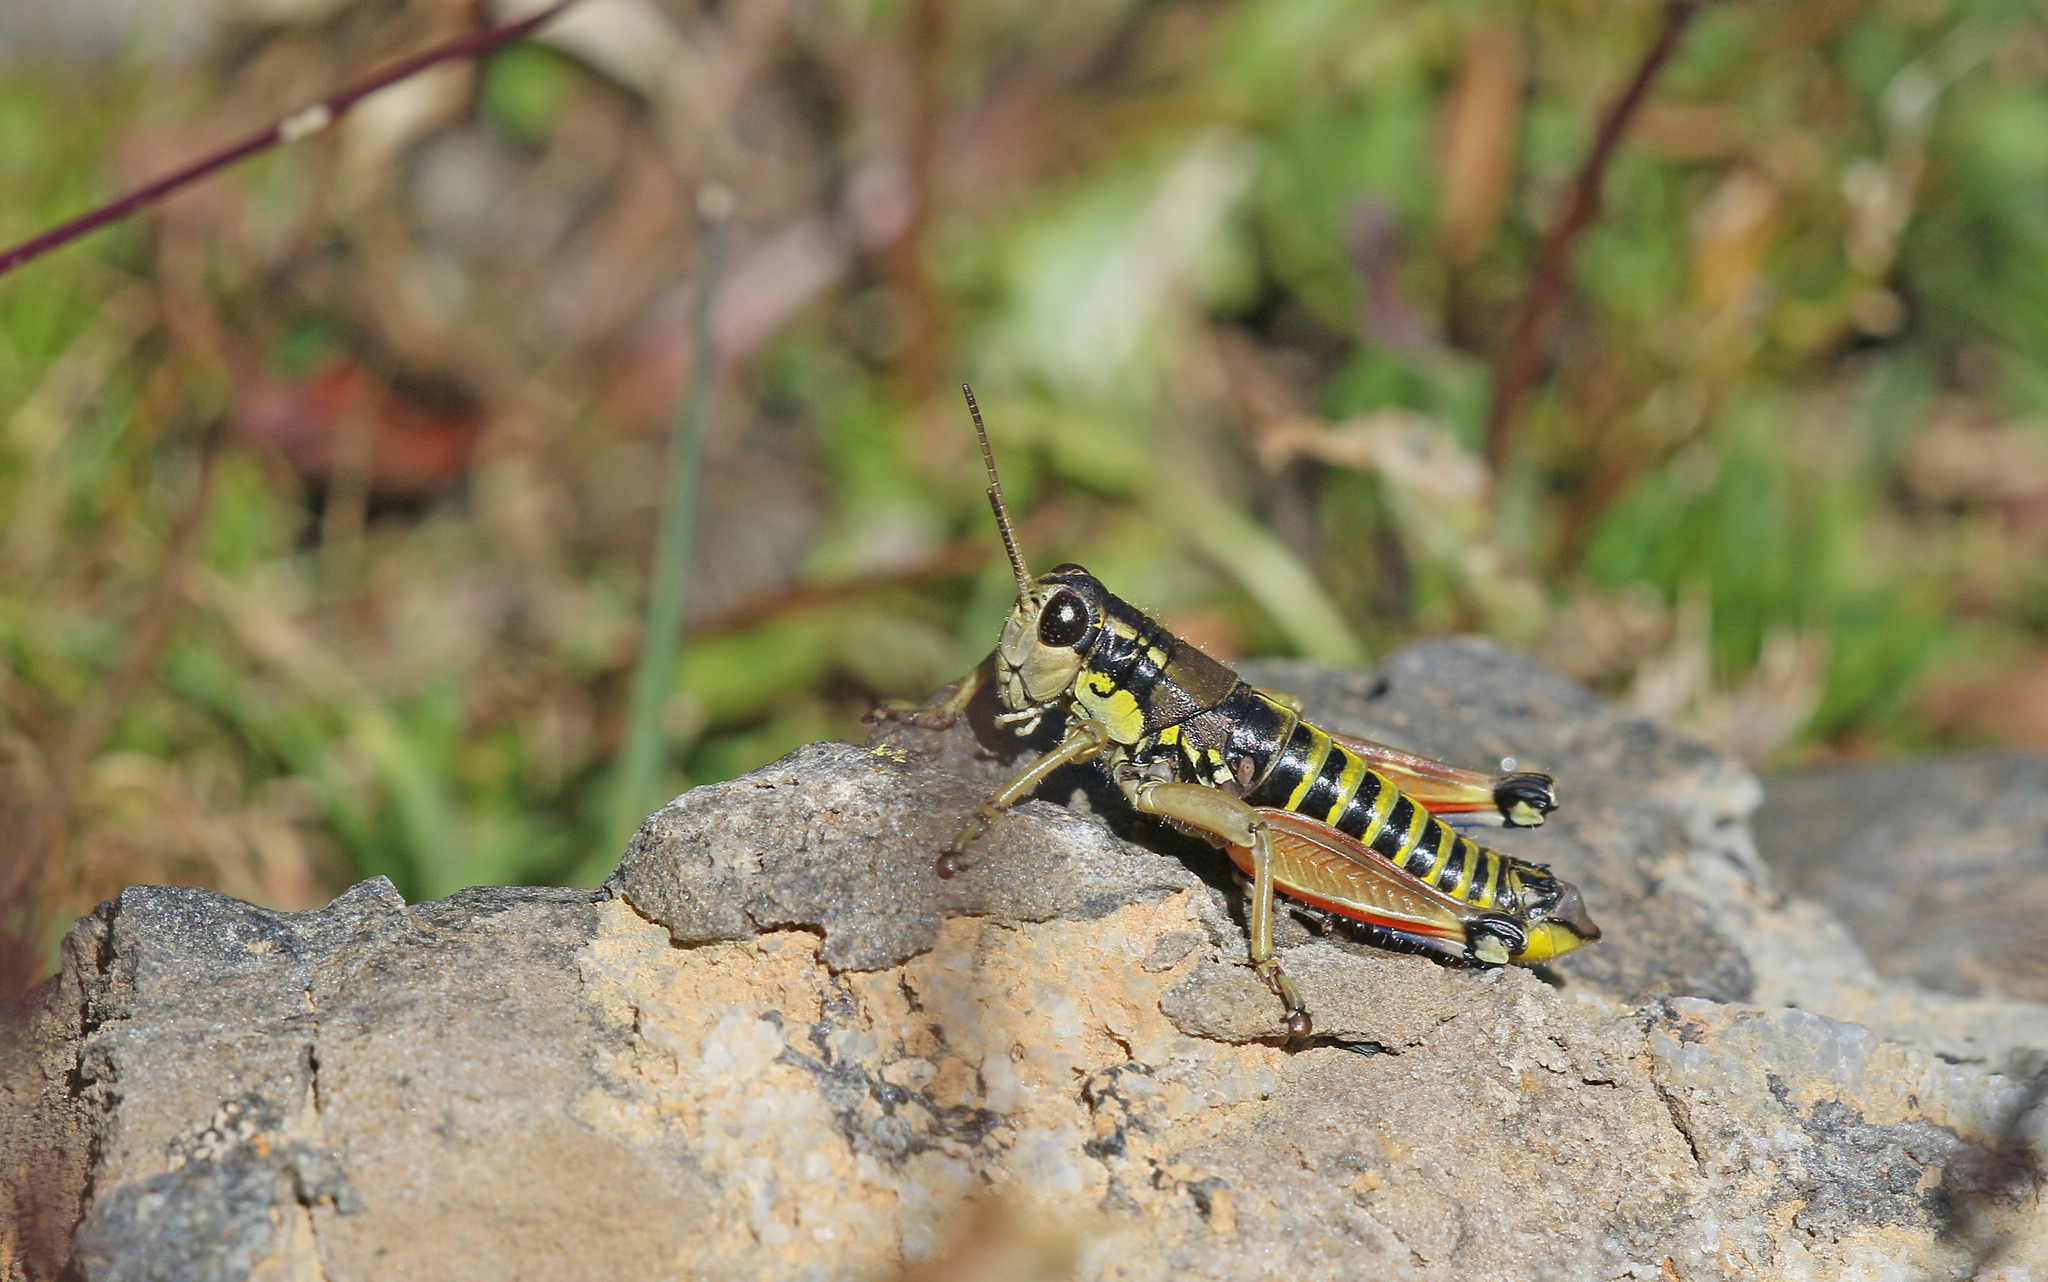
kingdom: Animalia
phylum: Arthropoda
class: Insecta
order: Orthoptera
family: Acrididae
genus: Podisma
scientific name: Podisma dechambrei
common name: Alpes-maritimes mountain grasshopper
